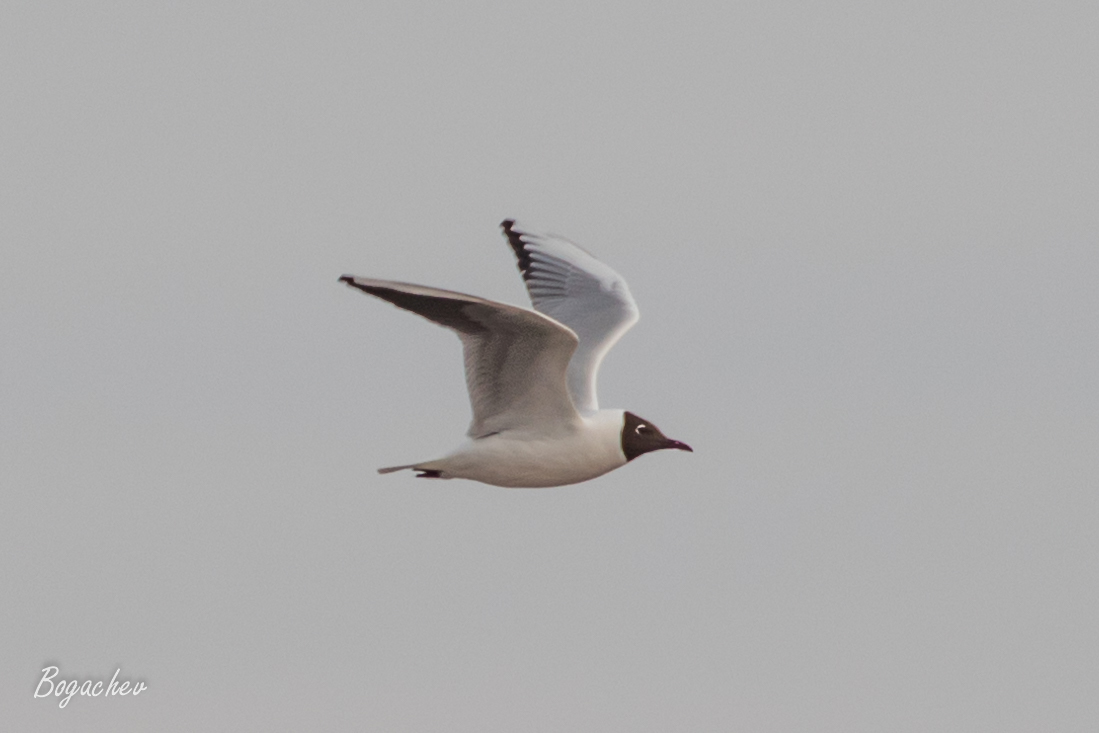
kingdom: Animalia
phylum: Chordata
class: Aves
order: Charadriiformes
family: Laridae
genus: Chroicocephalus
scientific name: Chroicocephalus ridibundus
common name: Black-headed gull
